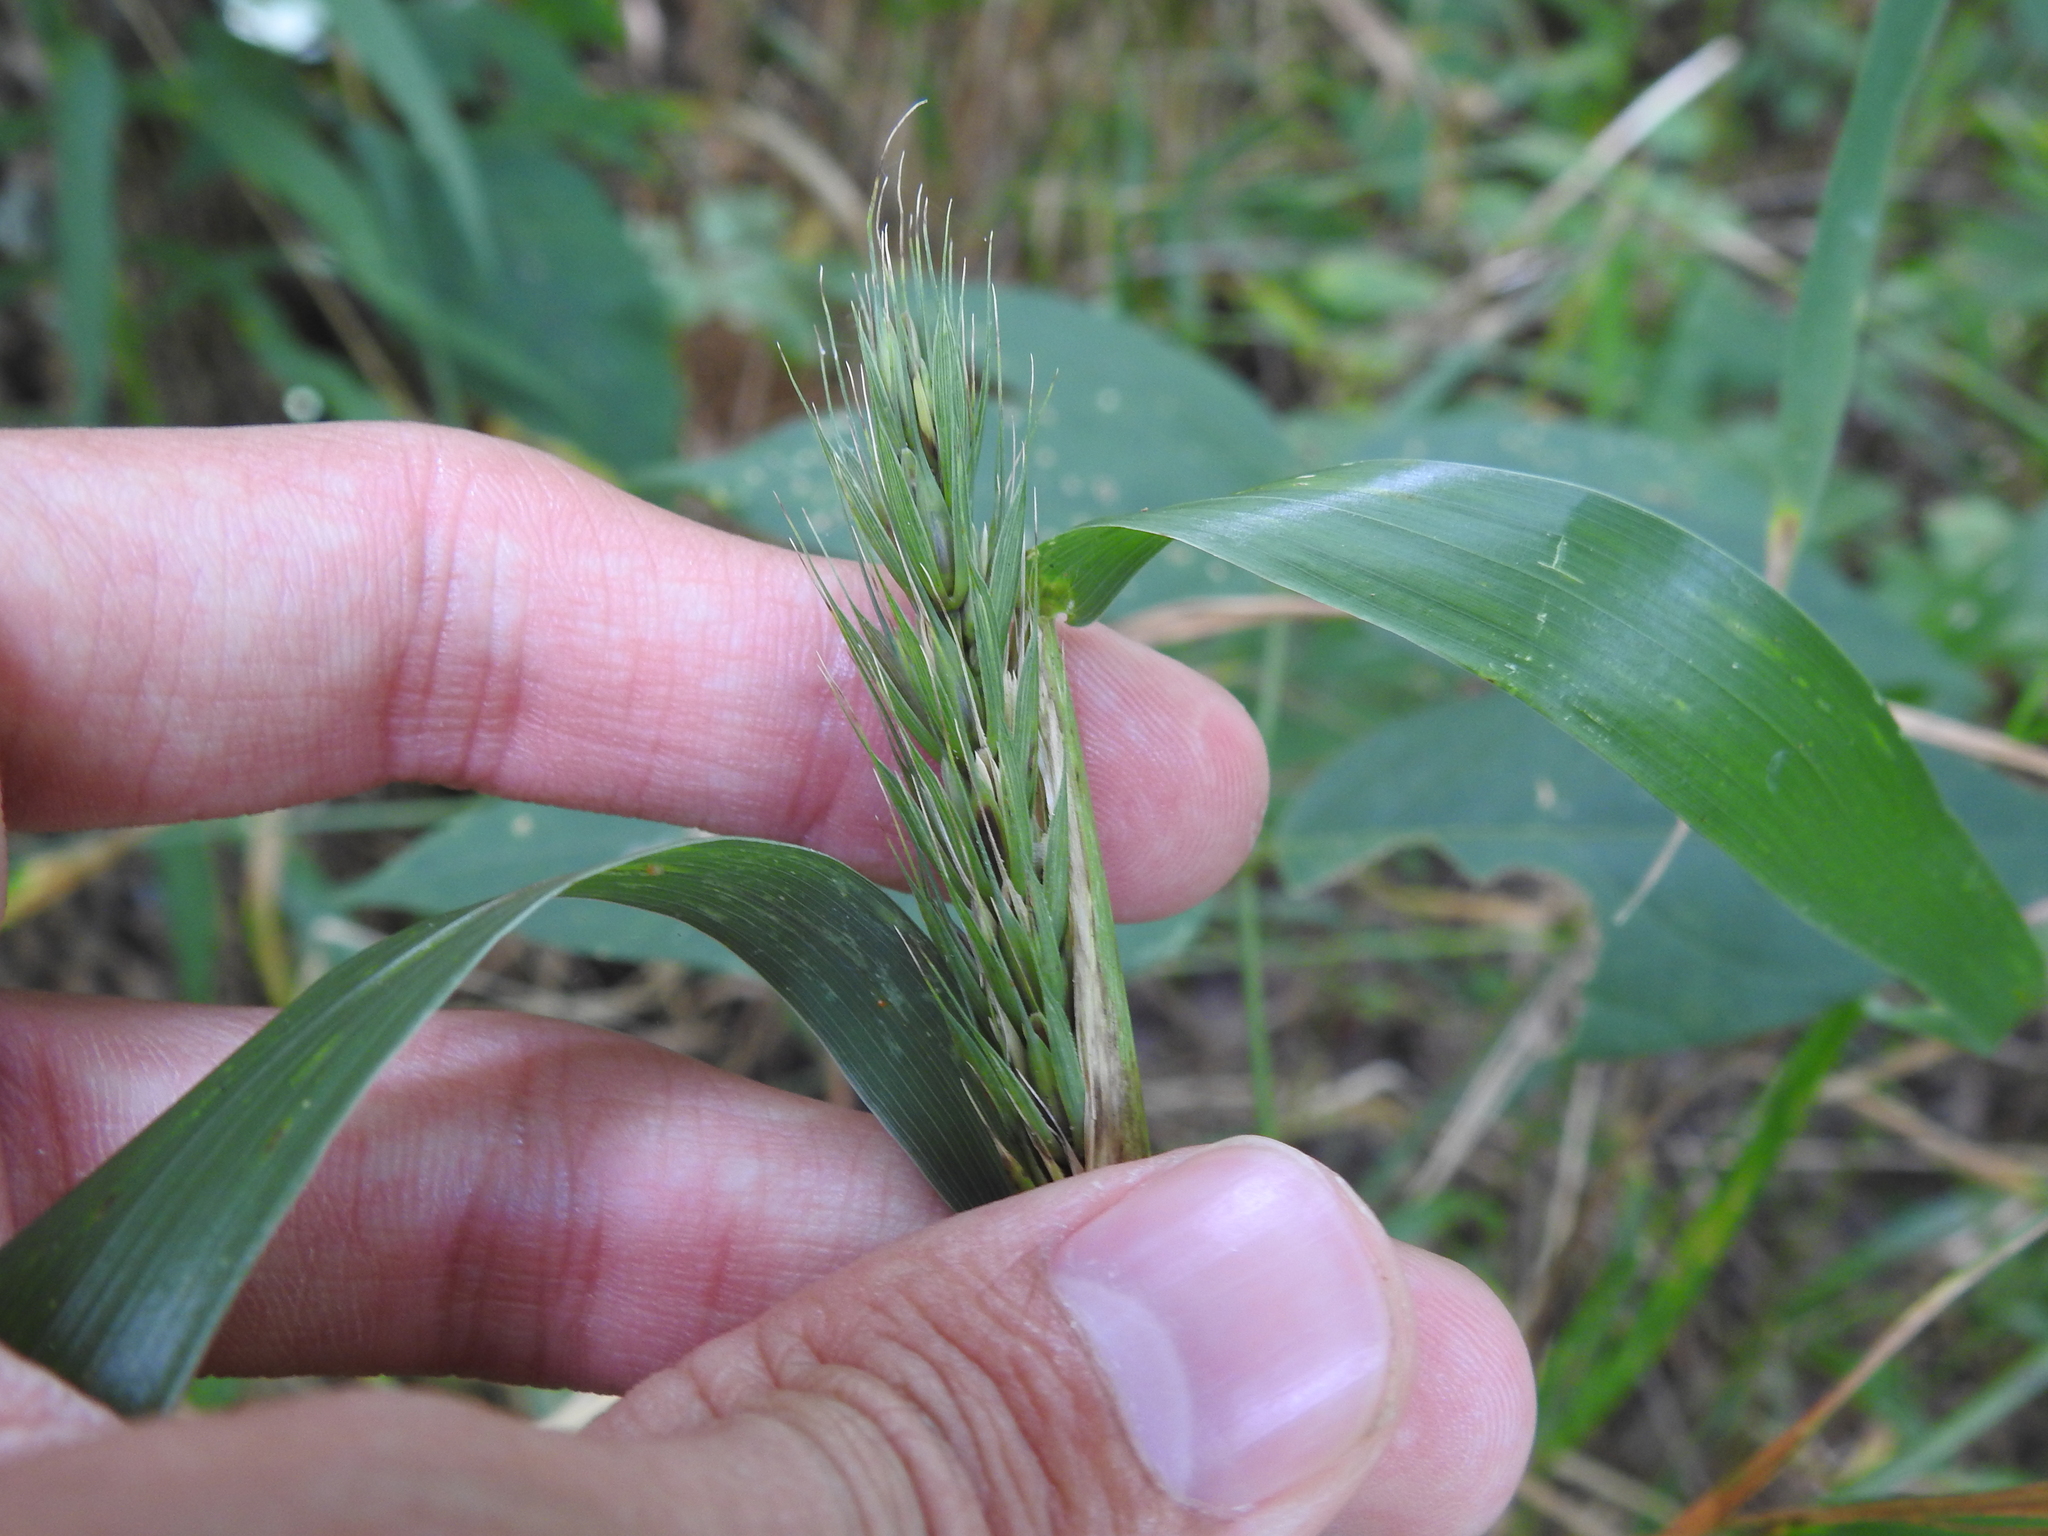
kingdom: Plantae
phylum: Tracheophyta
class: Liliopsida
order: Poales
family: Poaceae
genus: Elymus
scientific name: Elymus virginicus
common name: Common eastern wildrye
